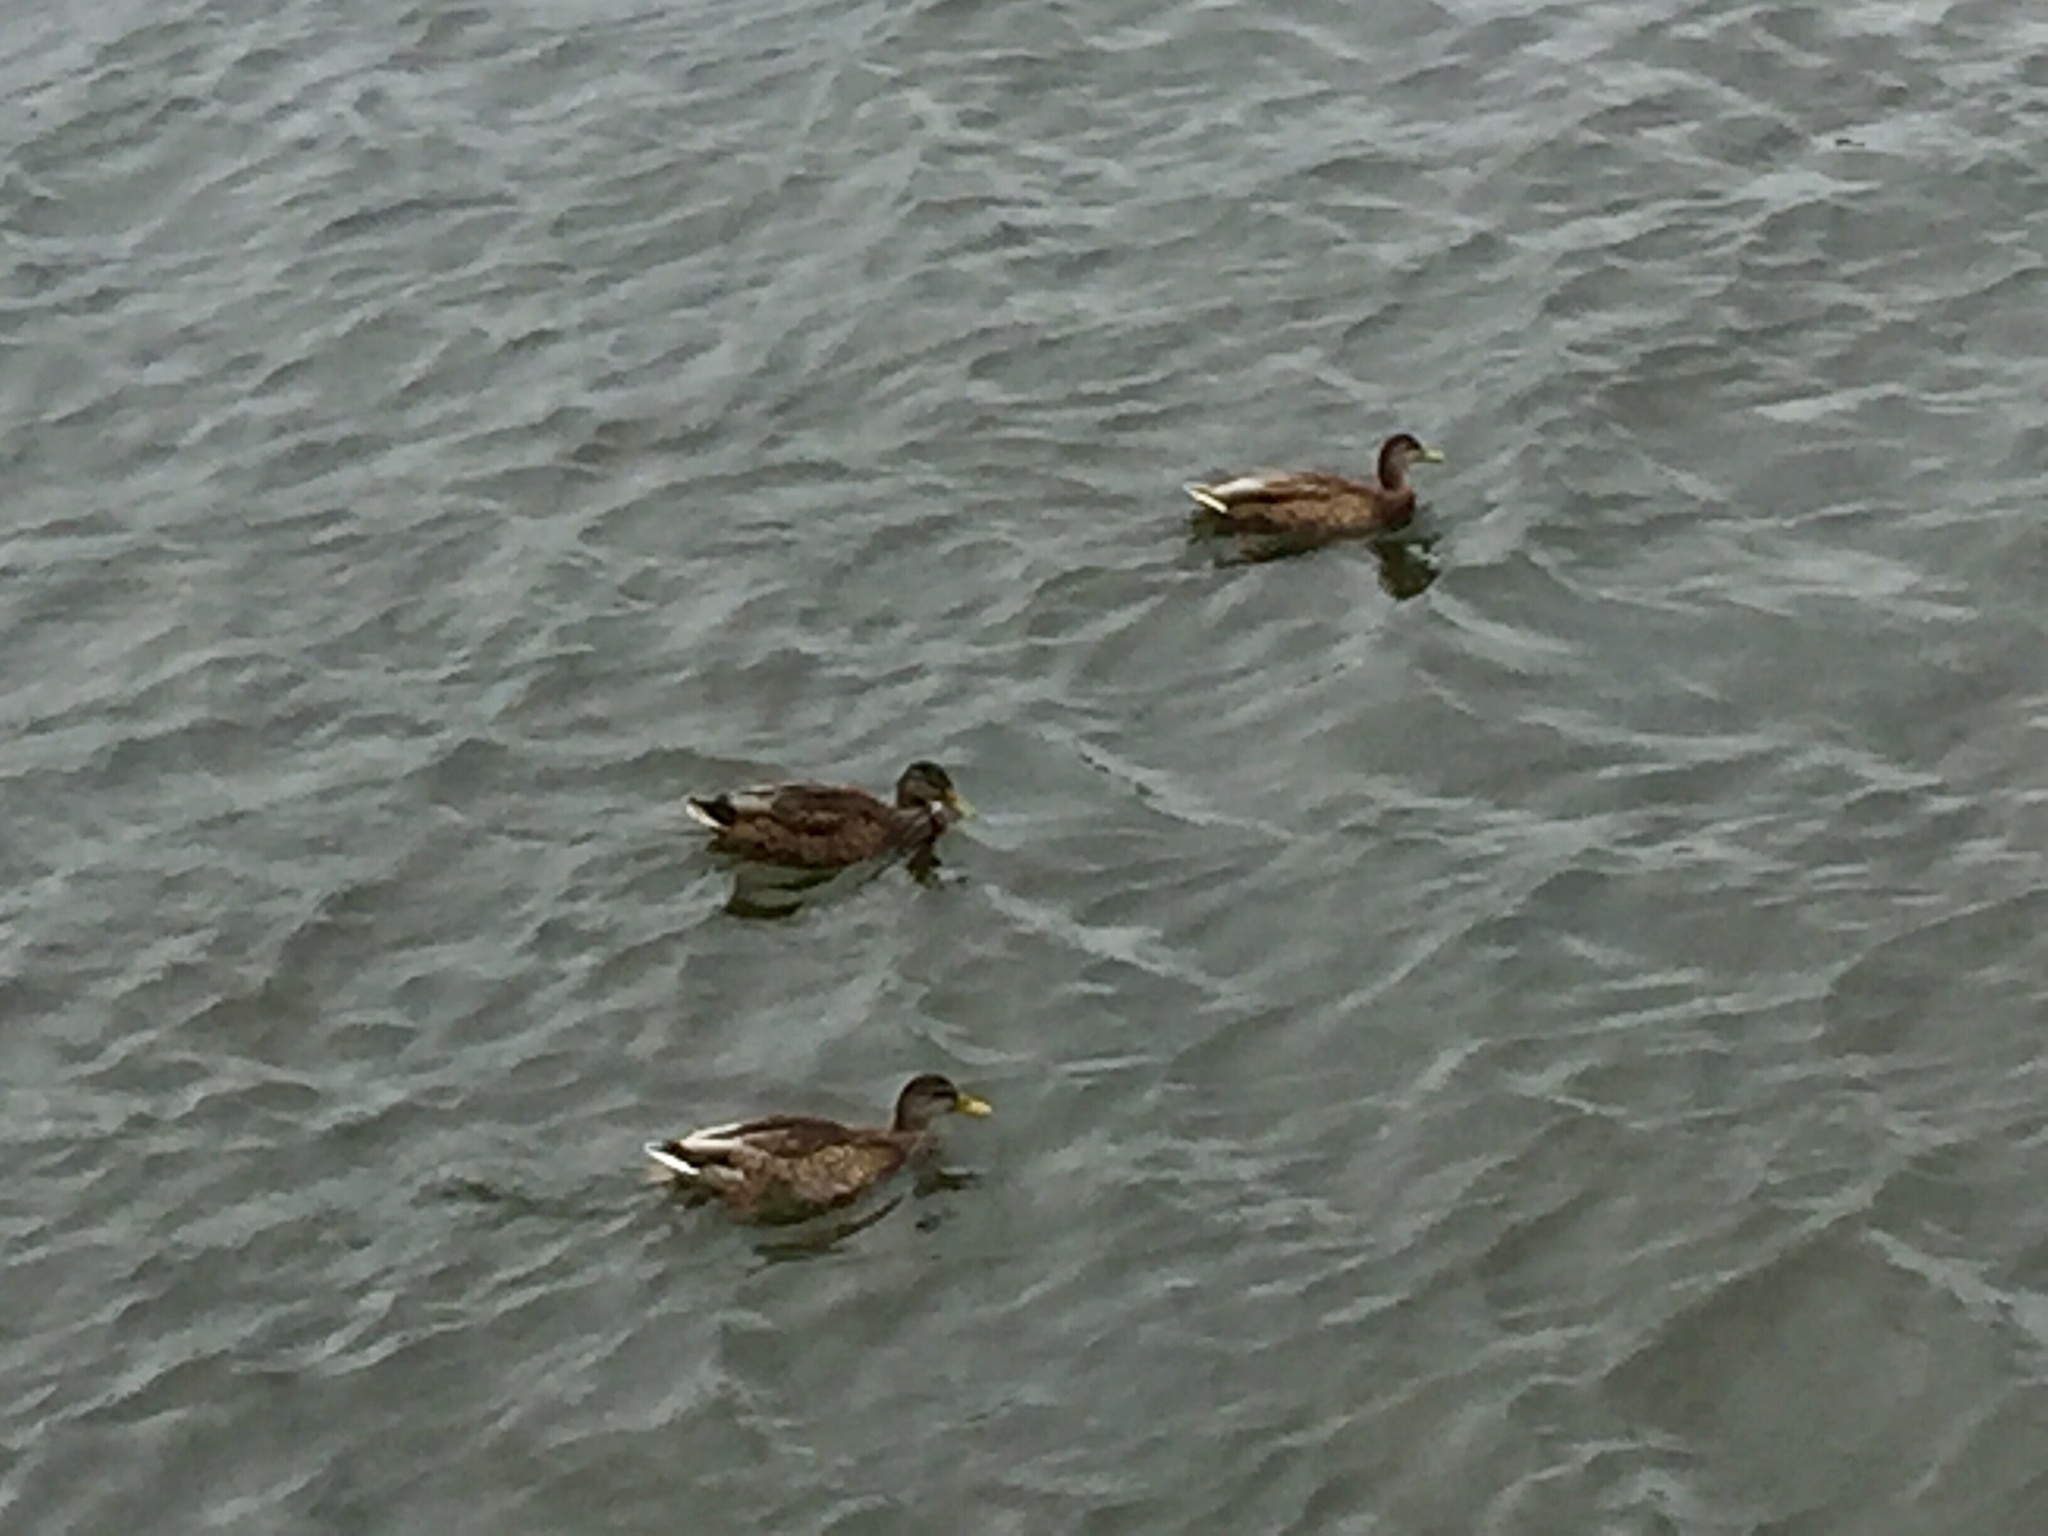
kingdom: Animalia
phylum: Chordata
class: Aves
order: Anseriformes
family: Anatidae
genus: Anas
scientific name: Anas platyrhynchos
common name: Mallard
